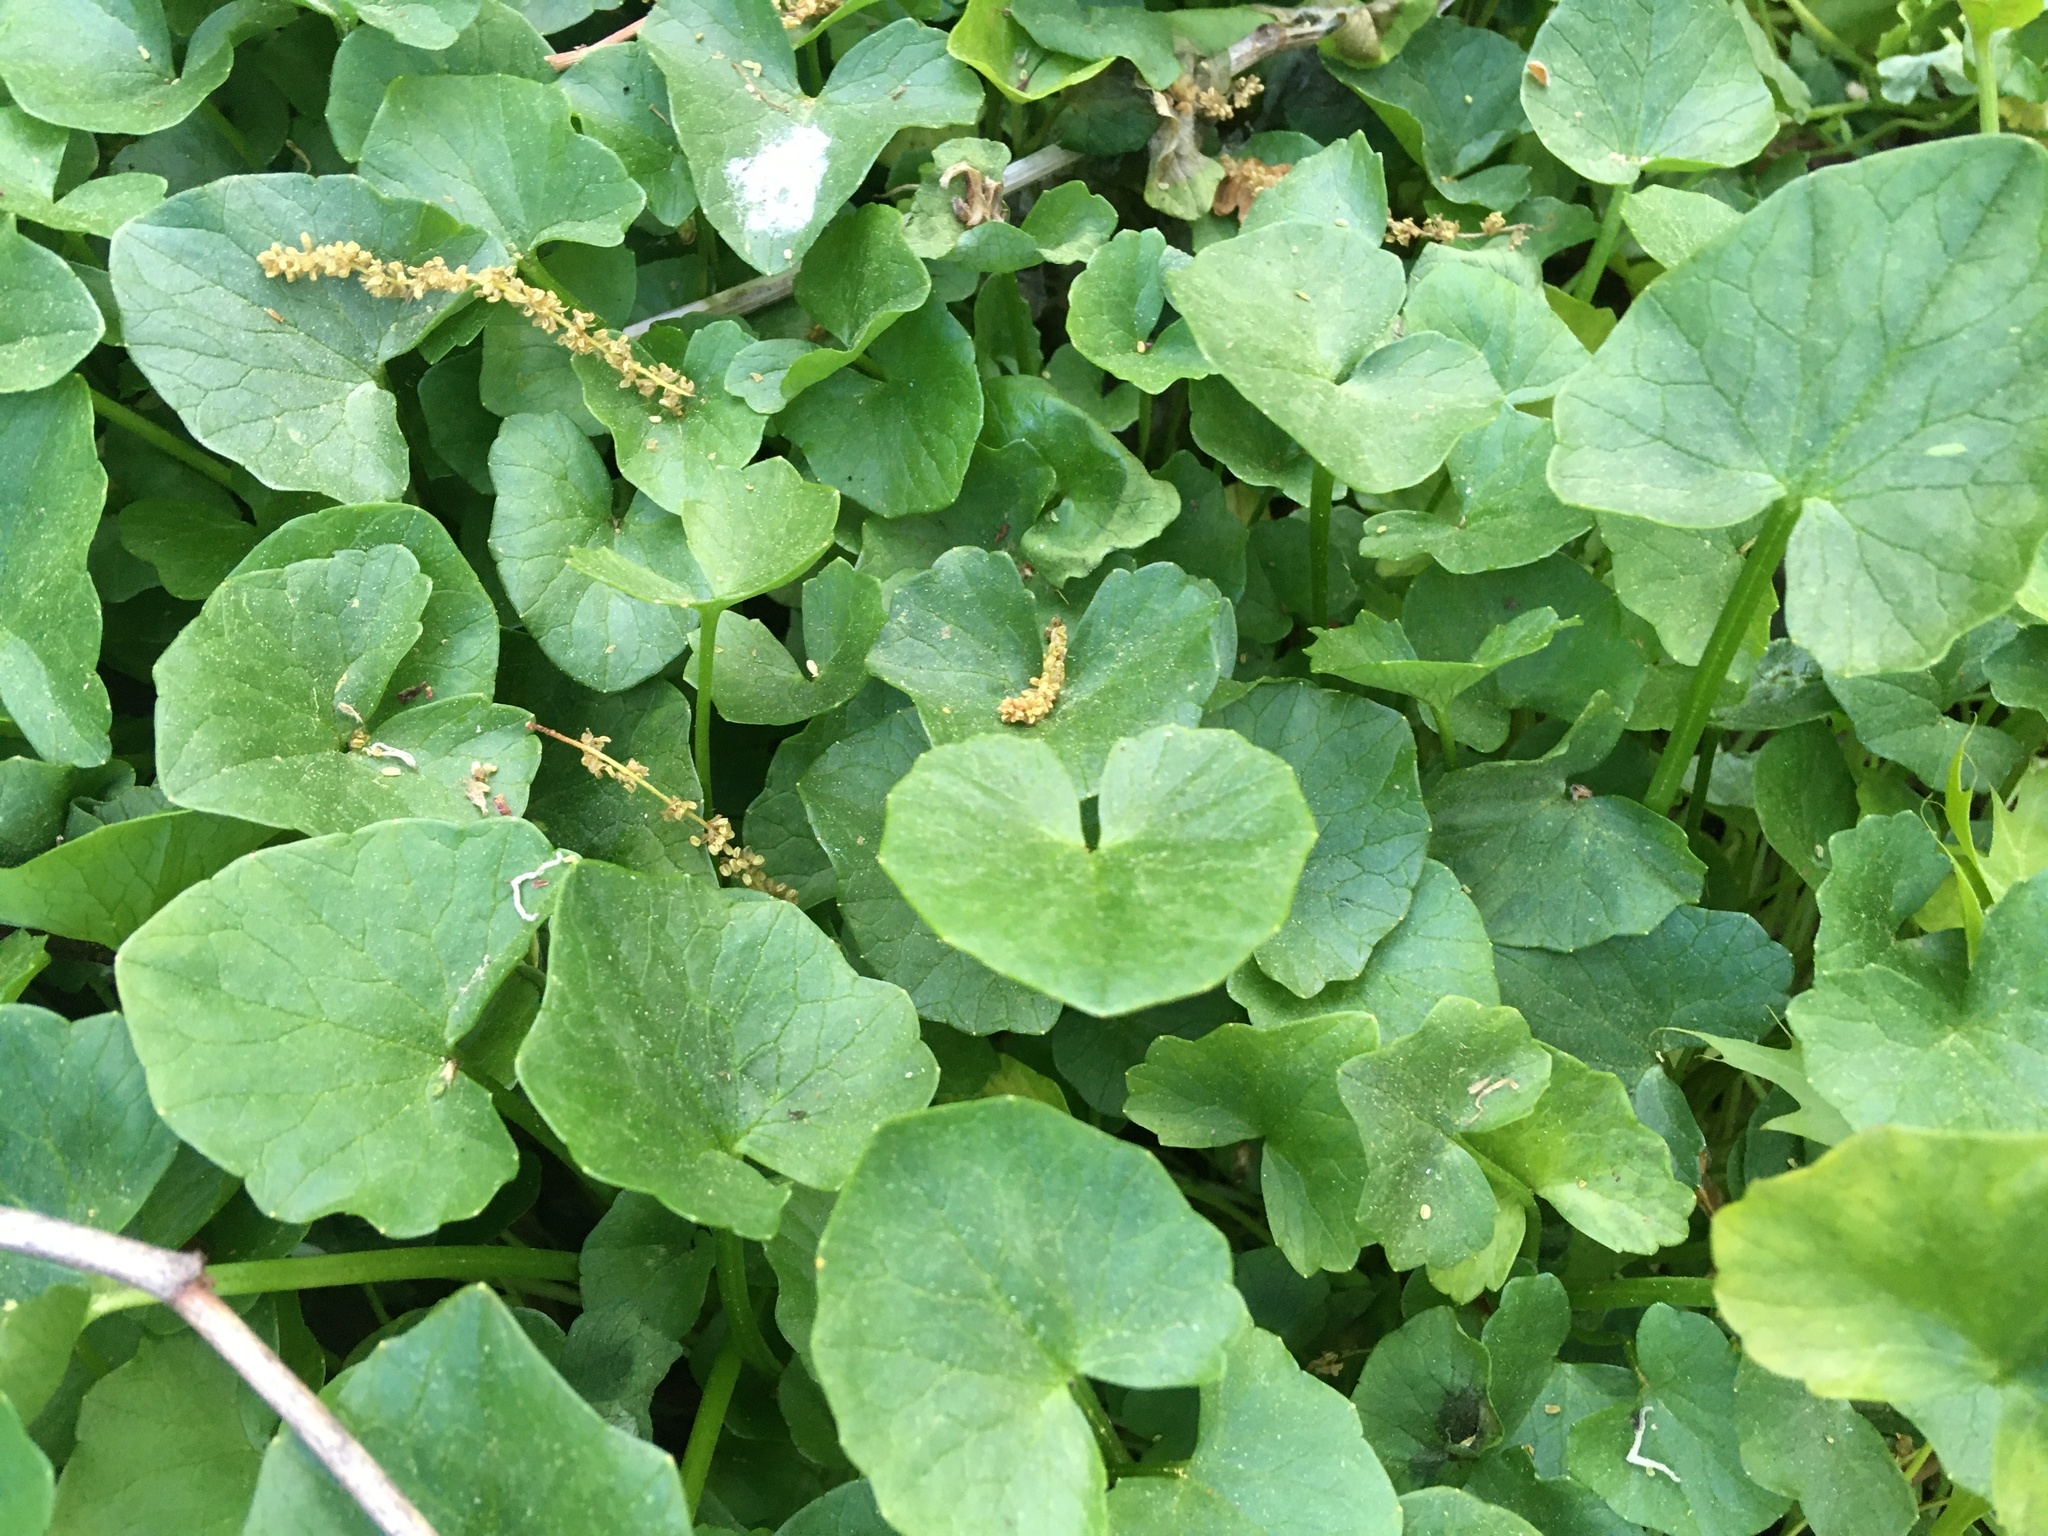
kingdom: Plantae
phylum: Tracheophyta
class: Magnoliopsida
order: Ranunculales
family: Ranunculaceae
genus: Ficaria
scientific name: Ficaria verna
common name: Lesser celandine
